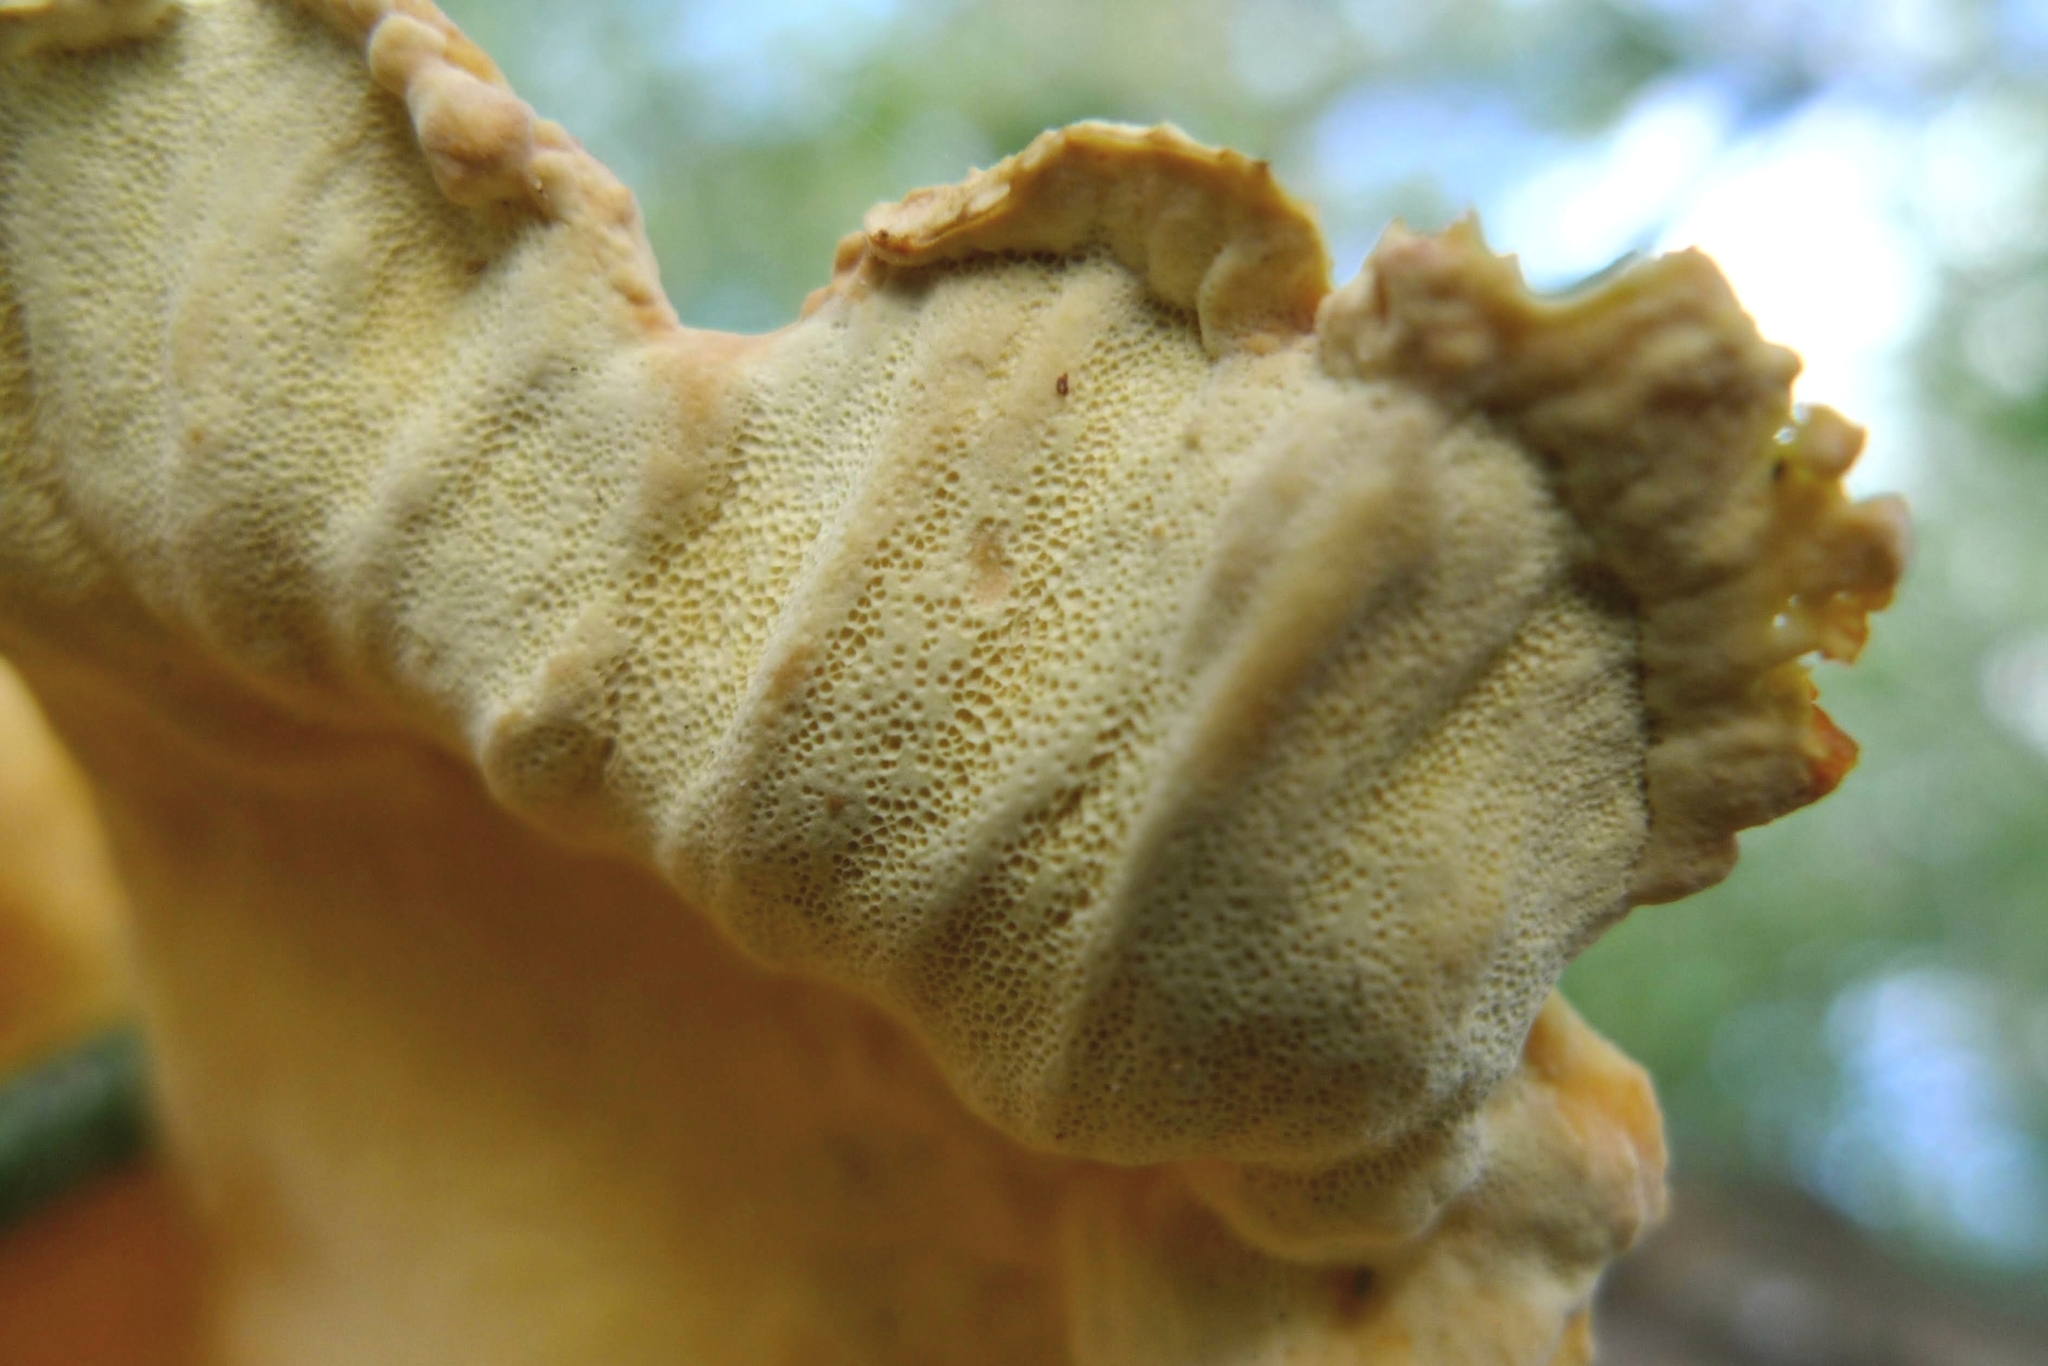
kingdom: Fungi
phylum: Basidiomycota
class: Agaricomycetes
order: Polyporales
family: Laetiporaceae
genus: Laetiporus
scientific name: Laetiporus sulphureus
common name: Chicken of the woods
